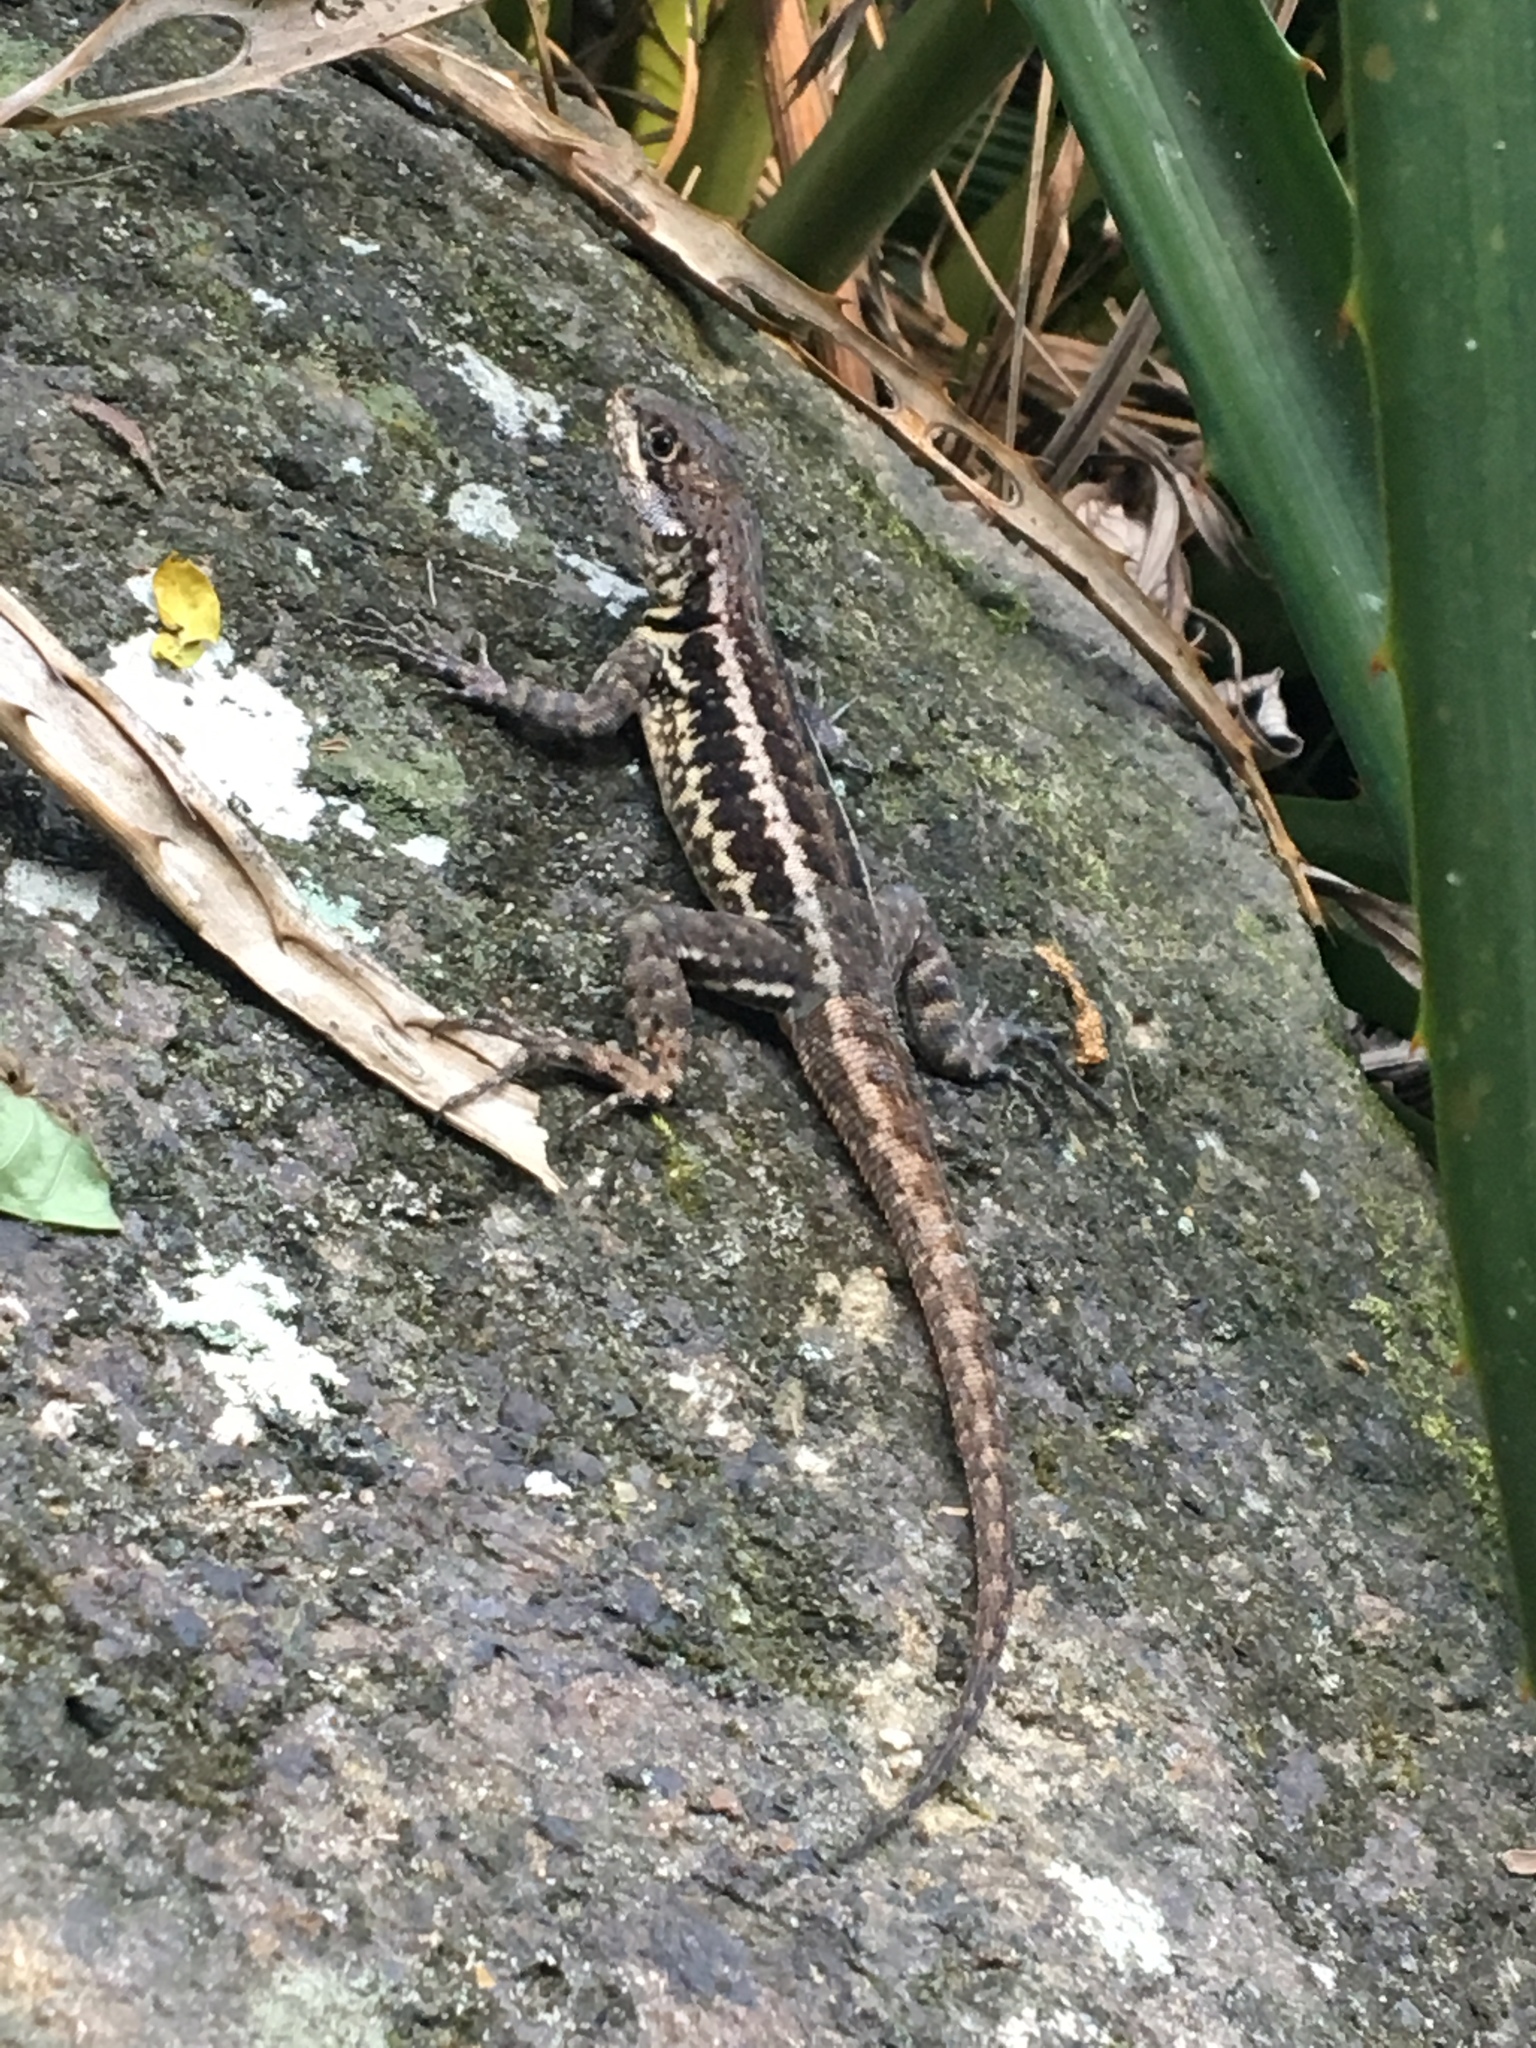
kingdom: Animalia
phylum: Chordata
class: Squamata
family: Tropiduridae
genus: Tropidurus
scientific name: Tropidurus torquatus
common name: Amazon lava lizard
